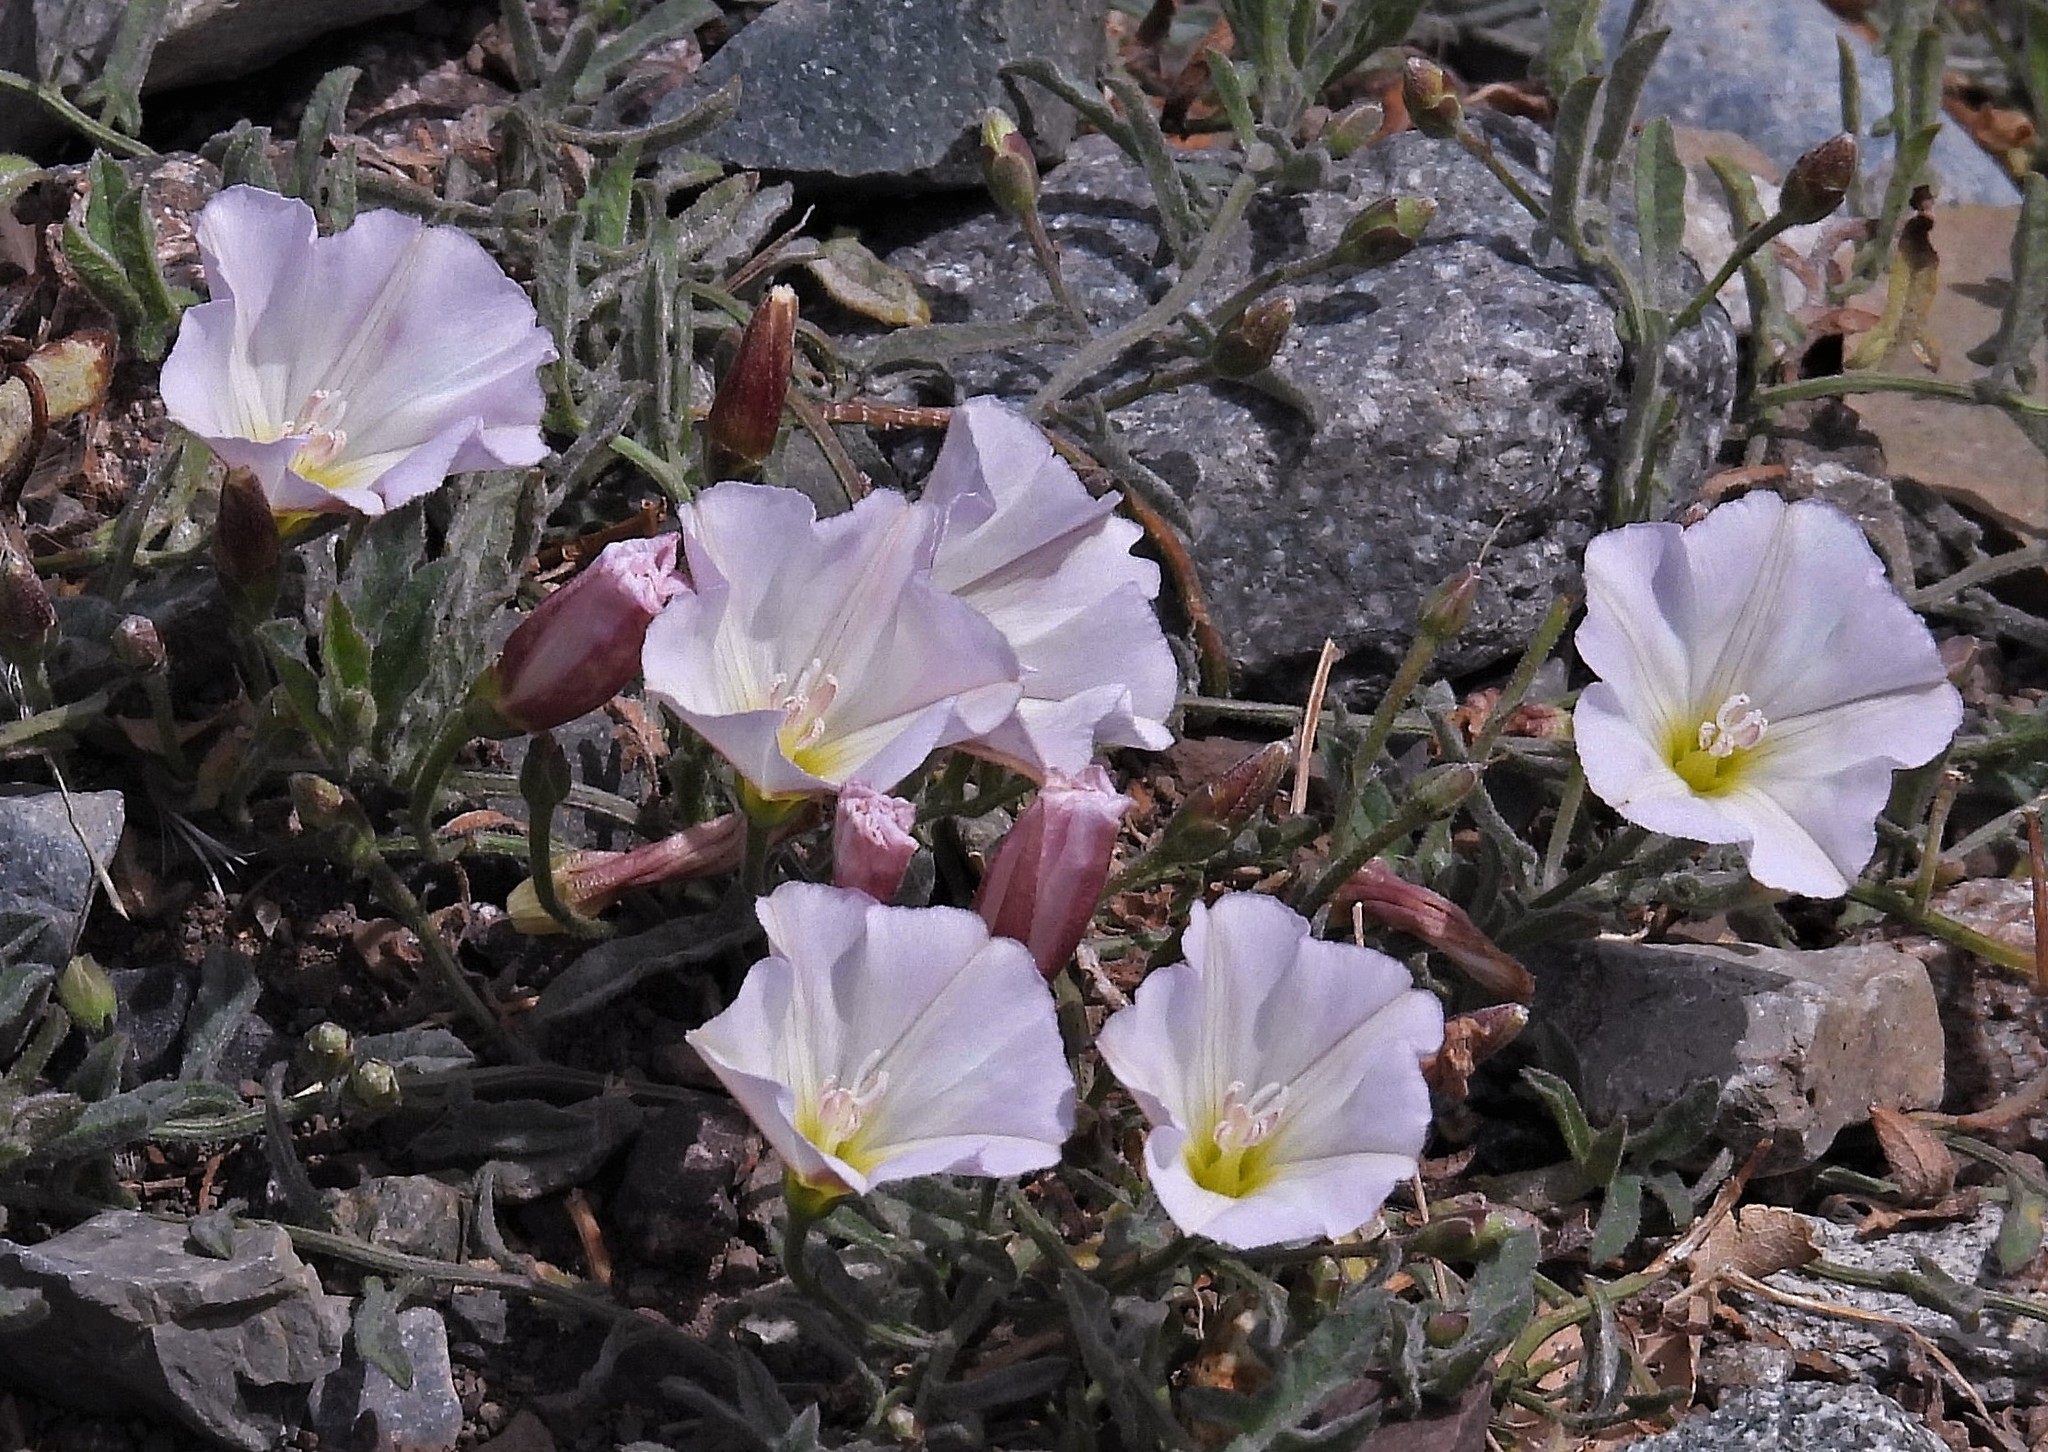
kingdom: Plantae
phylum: Tracheophyta
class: Magnoliopsida
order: Solanales
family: Convolvulaceae
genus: Convolvulus
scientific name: Convolvulus arvensis
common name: Field bindweed
